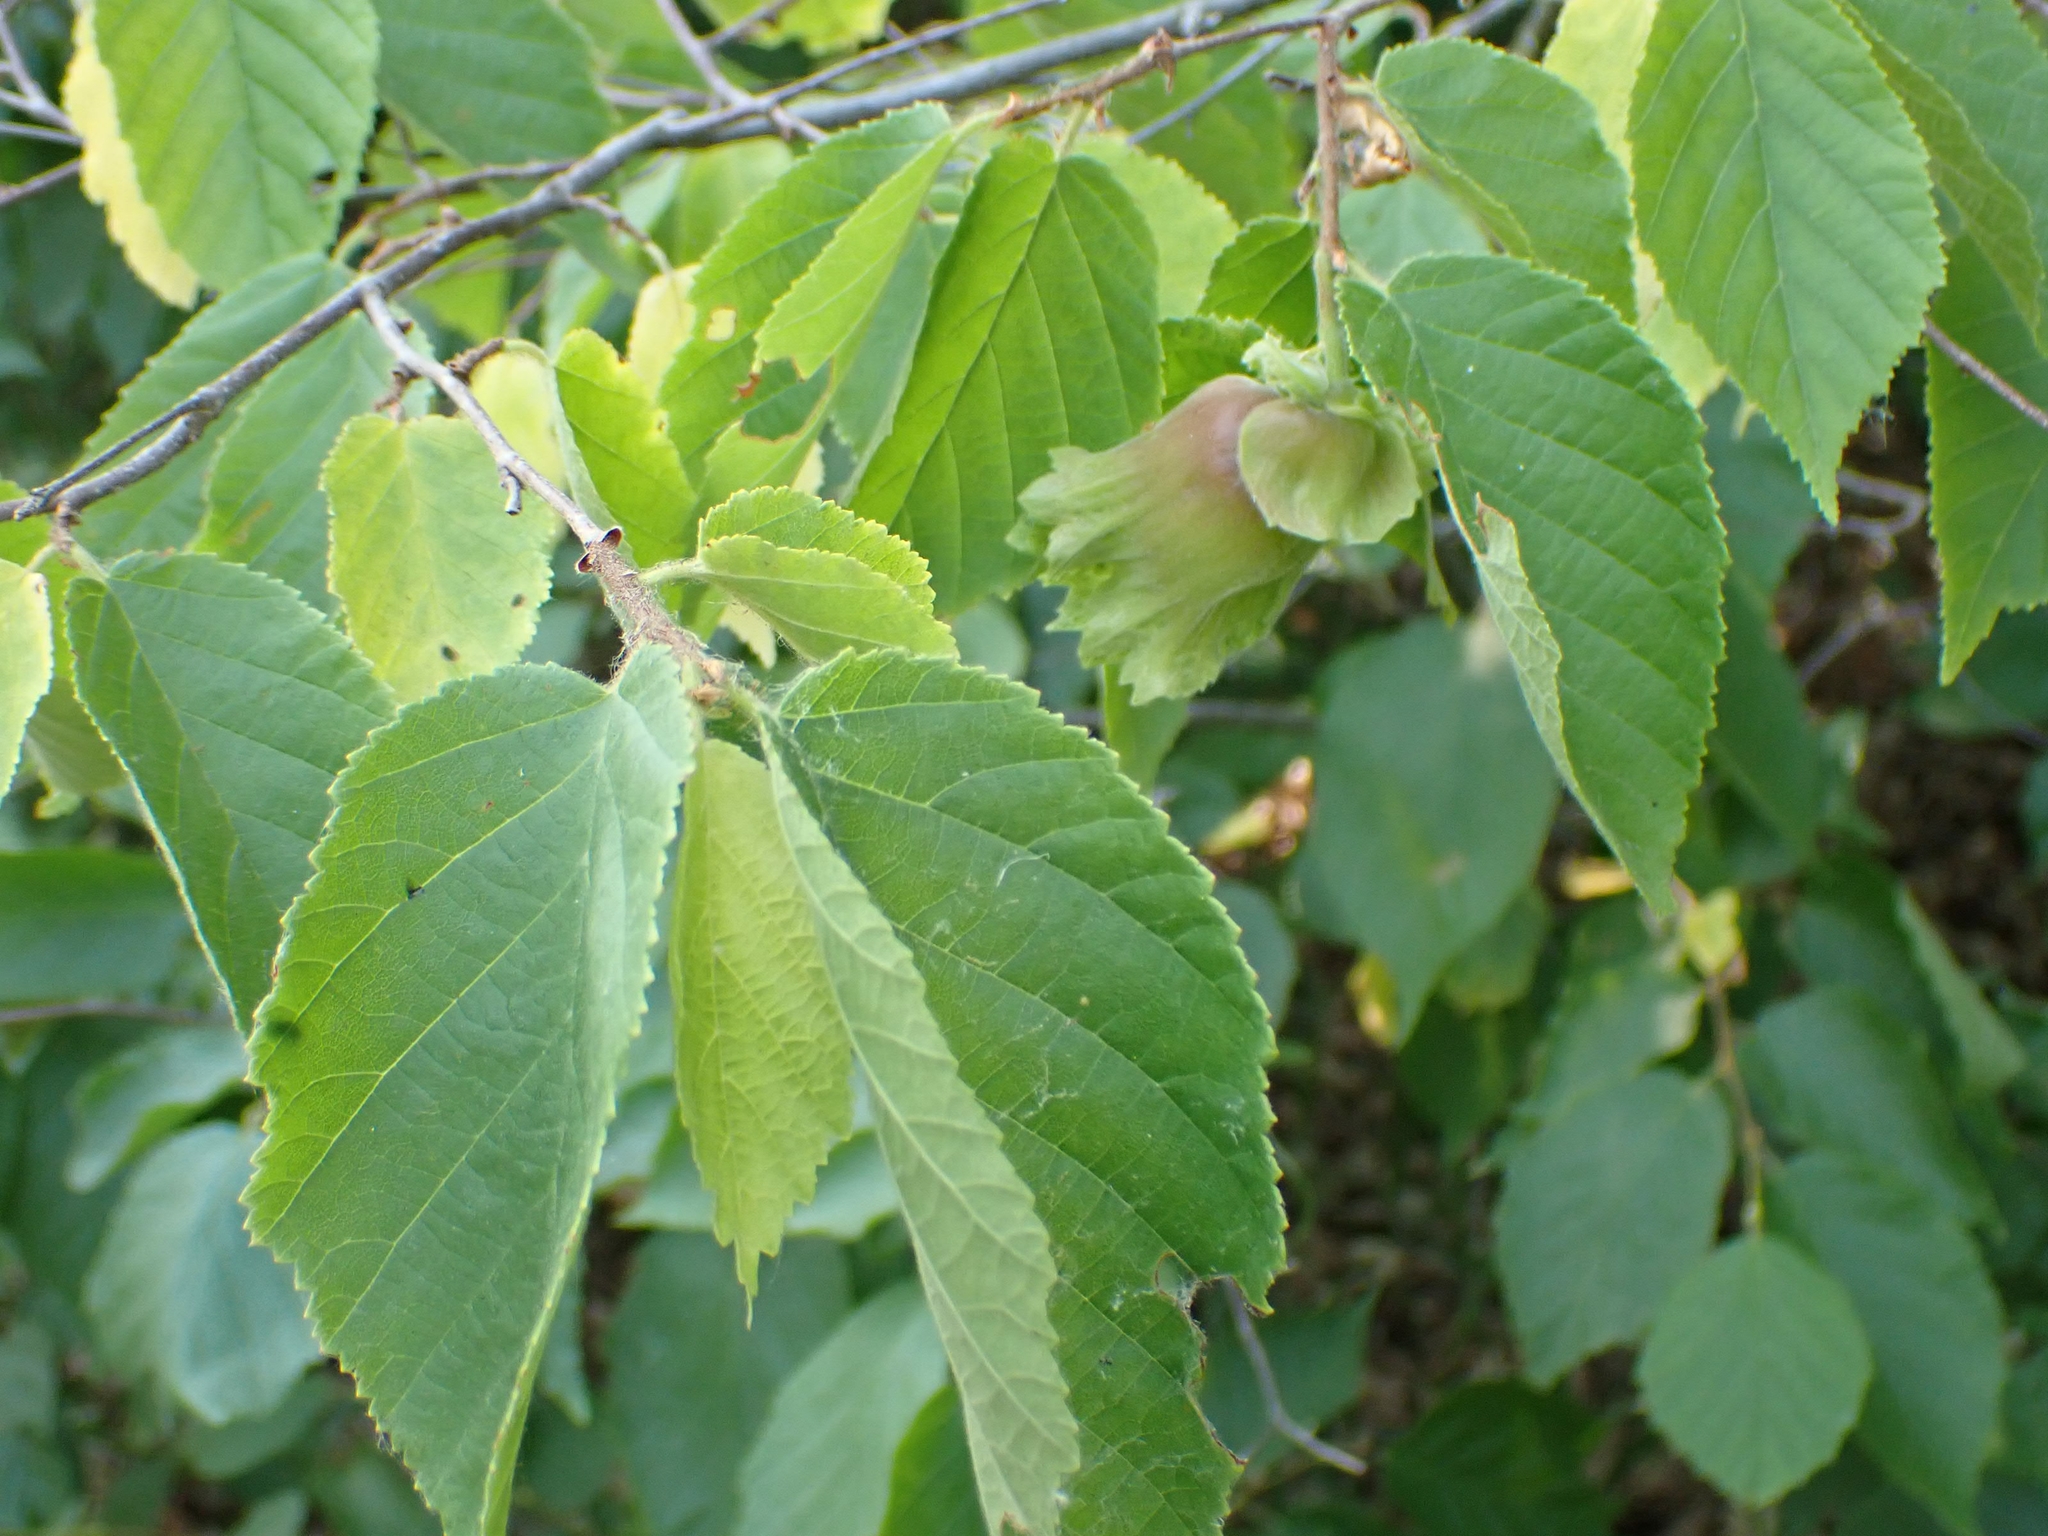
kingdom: Plantae
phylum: Tracheophyta
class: Magnoliopsida
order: Fagales
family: Betulaceae
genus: Corylus
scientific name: Corylus americana
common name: American hazel
